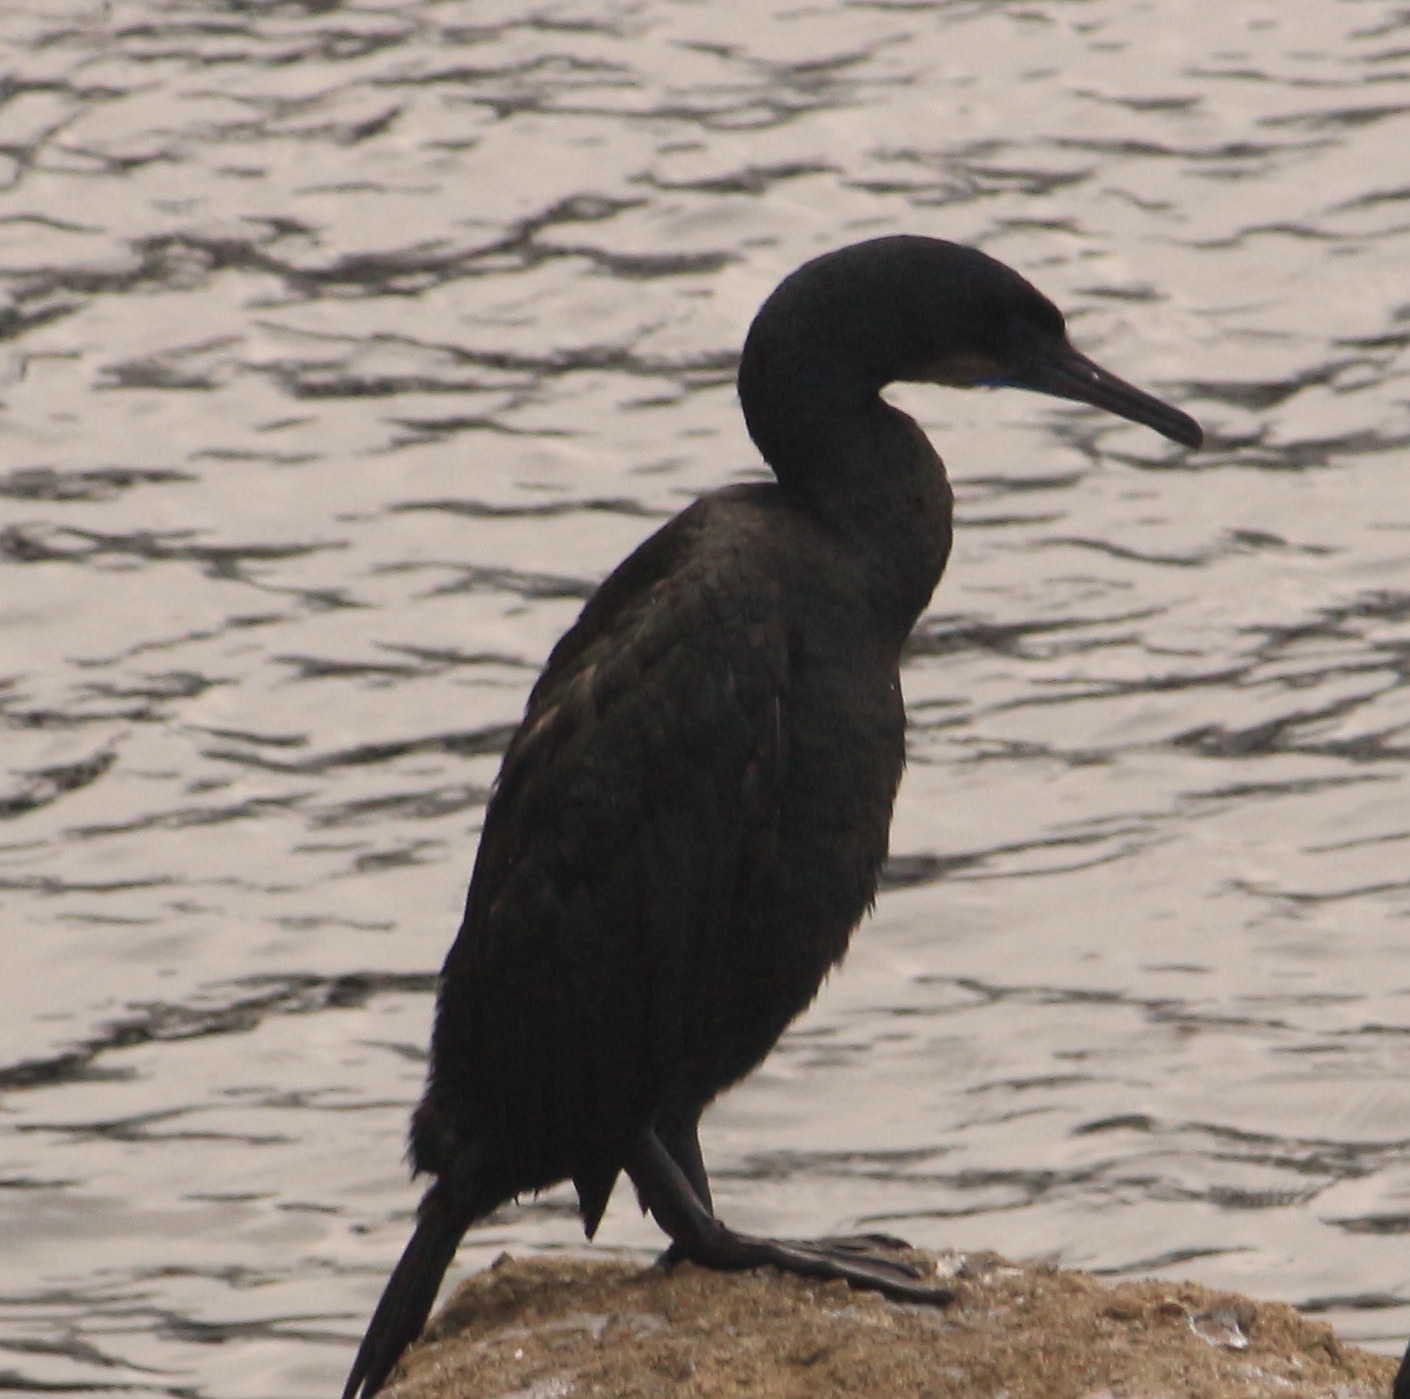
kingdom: Animalia
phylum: Chordata
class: Aves
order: Suliformes
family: Phalacrocoracidae
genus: Urile
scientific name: Urile penicillatus
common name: Brandt's cormorant
